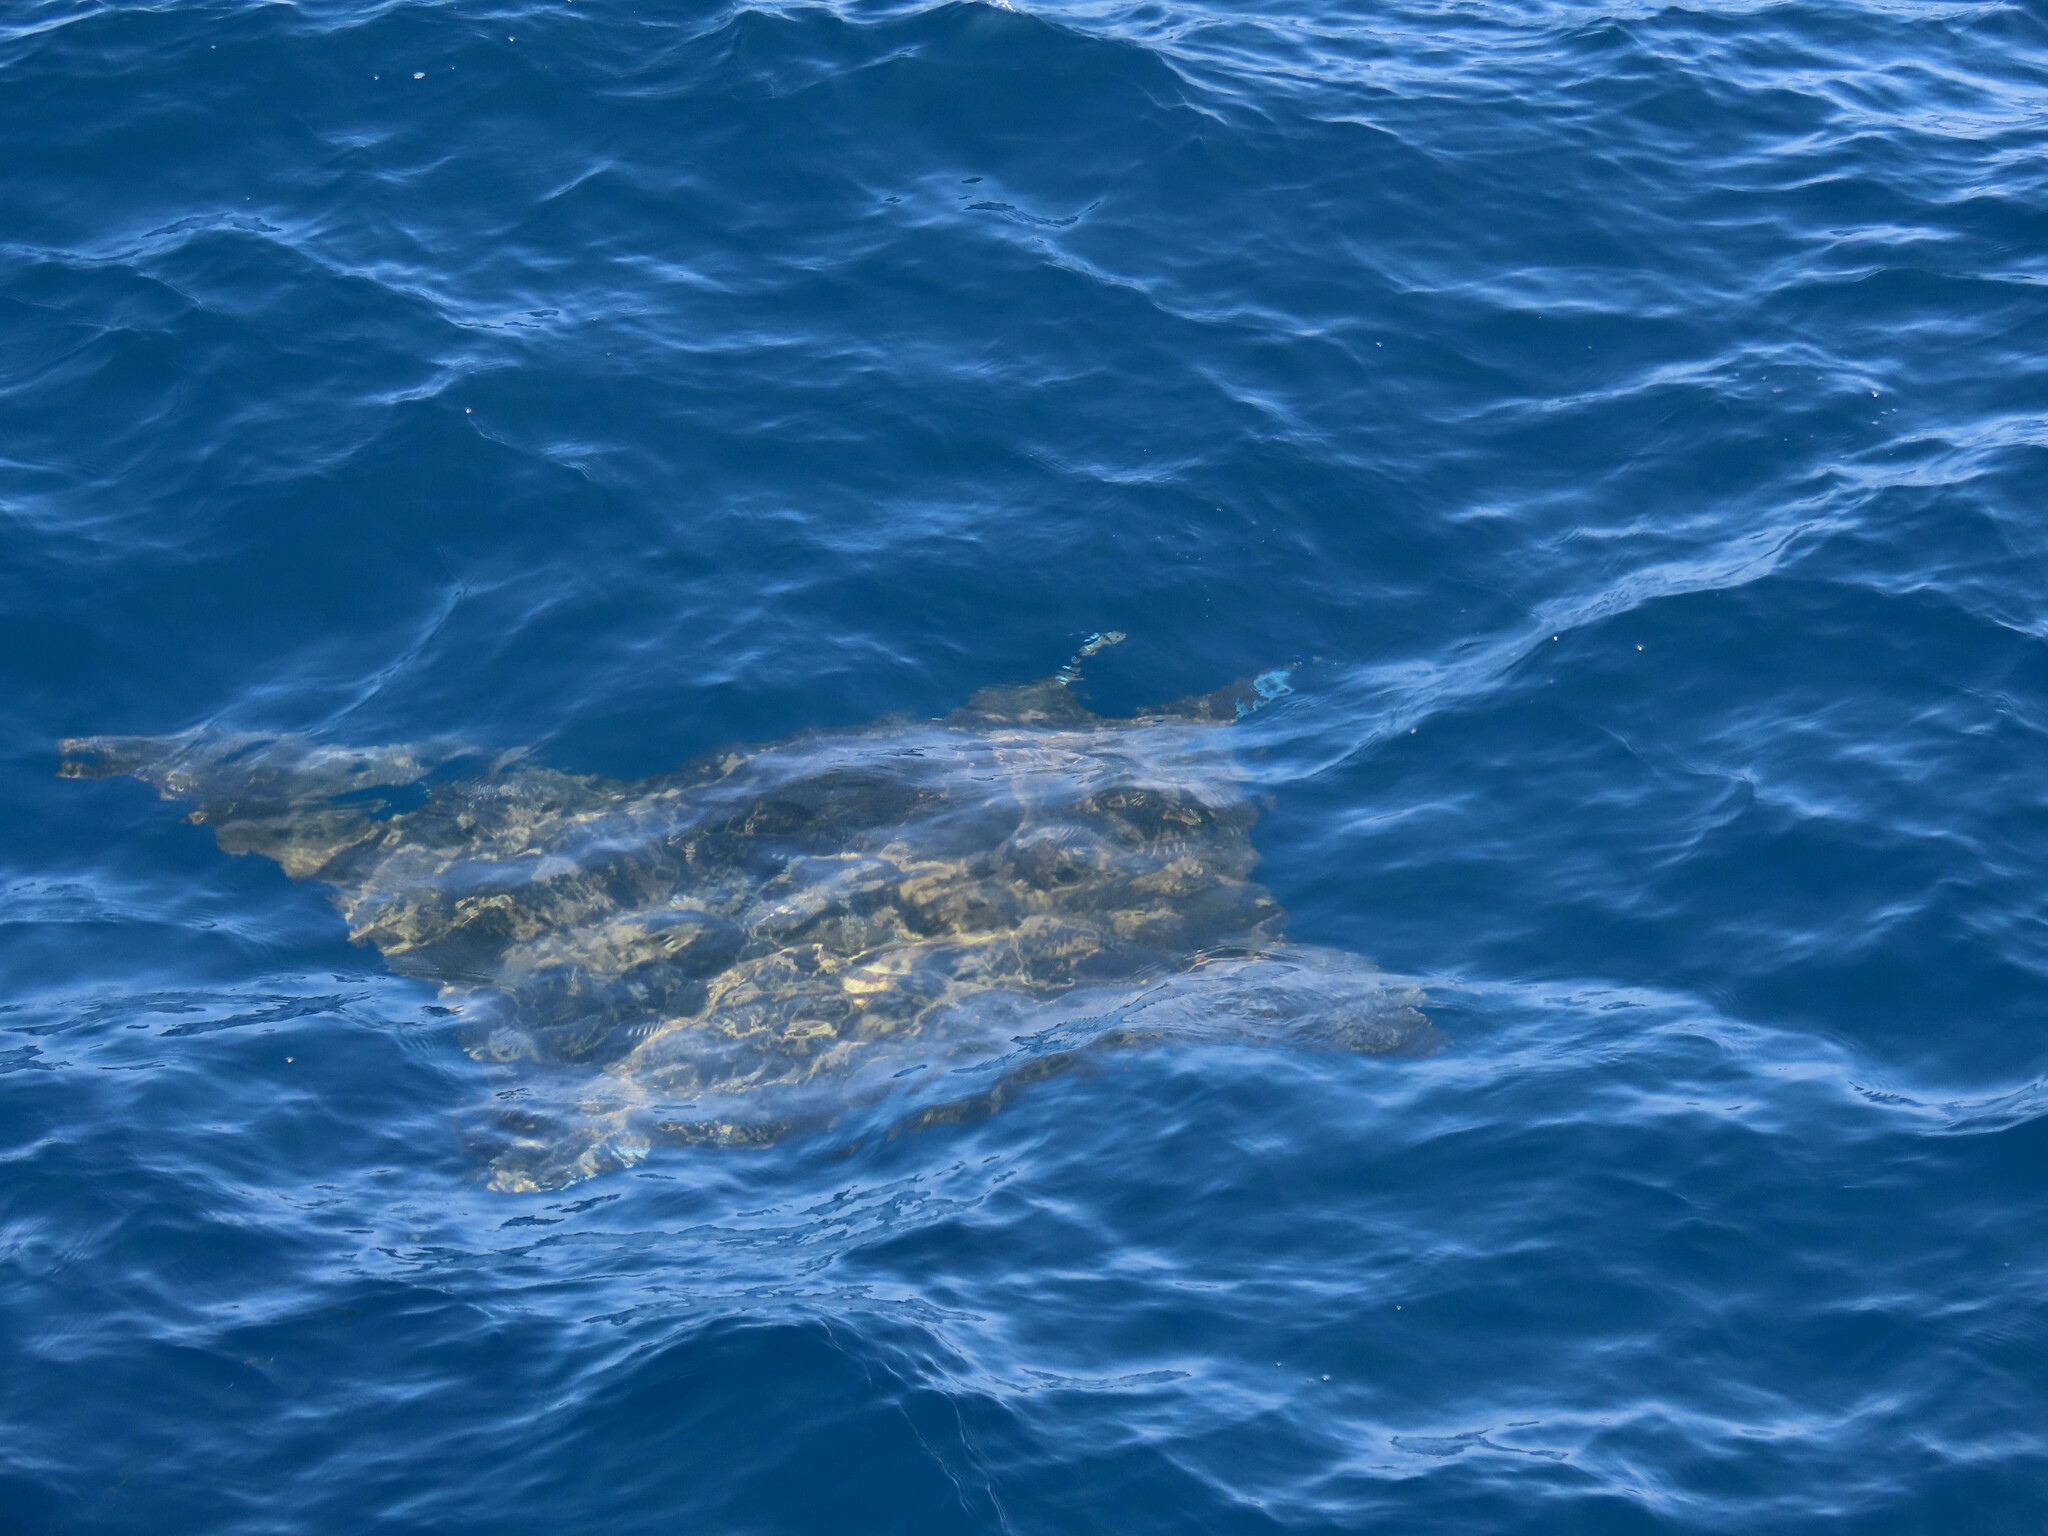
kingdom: Animalia
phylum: Chordata
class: Elasmobranchii
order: Myliobatiformes
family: Myliobatidae
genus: Mobula
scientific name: Mobula tarapacana
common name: Sicklefin devil ray
